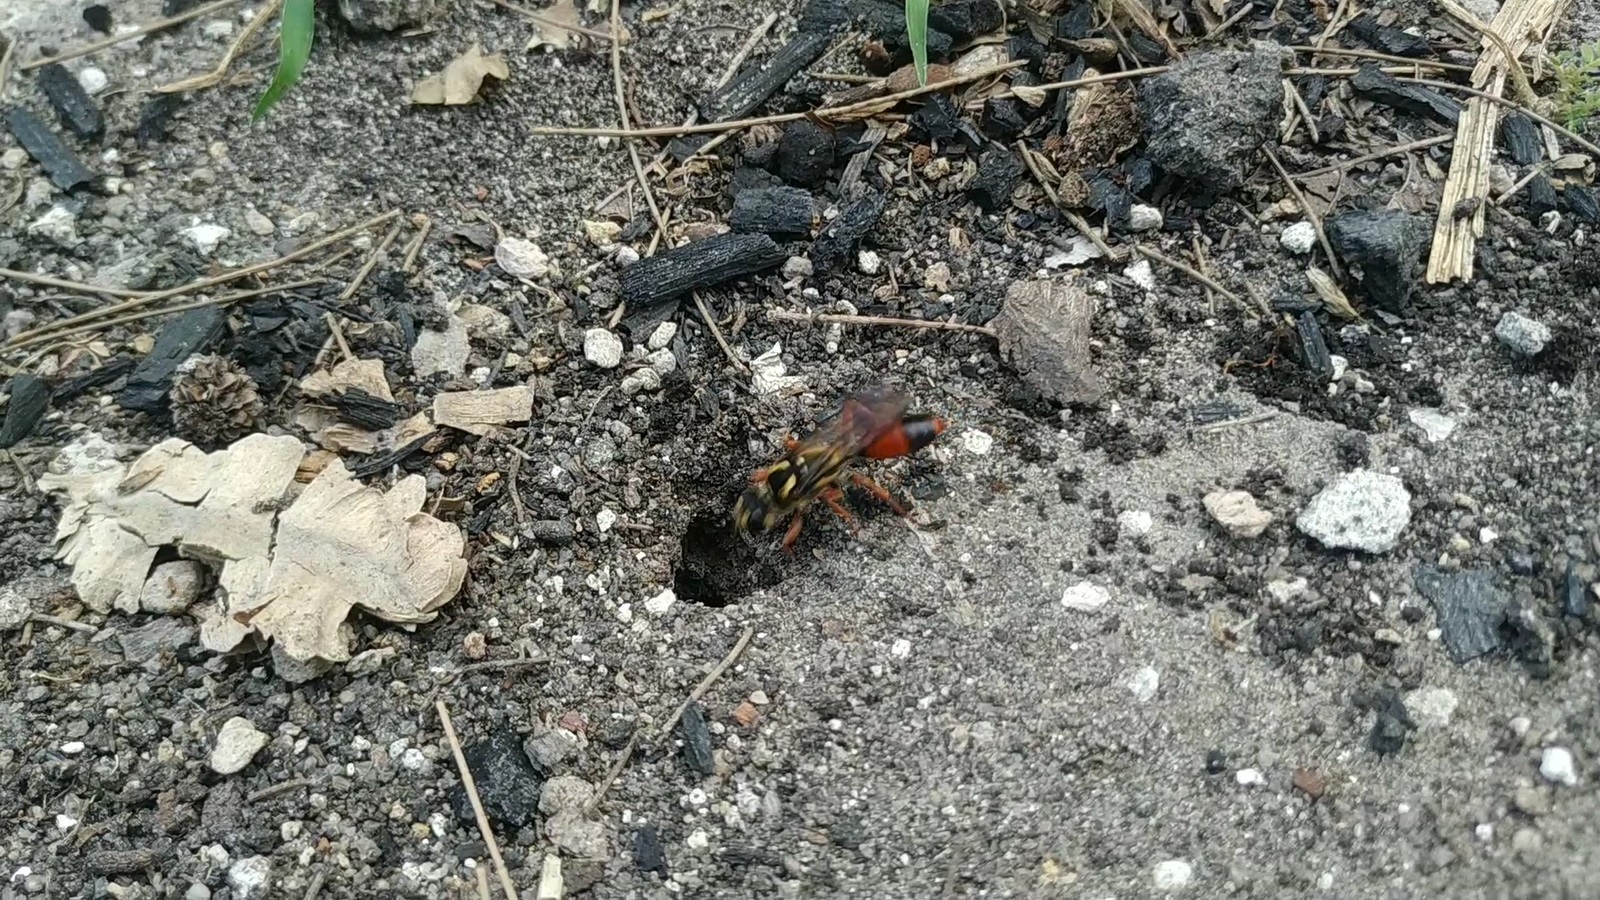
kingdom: Animalia
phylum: Arthropoda
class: Insecta
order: Hymenoptera
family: Sphecidae
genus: Sphex
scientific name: Sphex dorsalis
